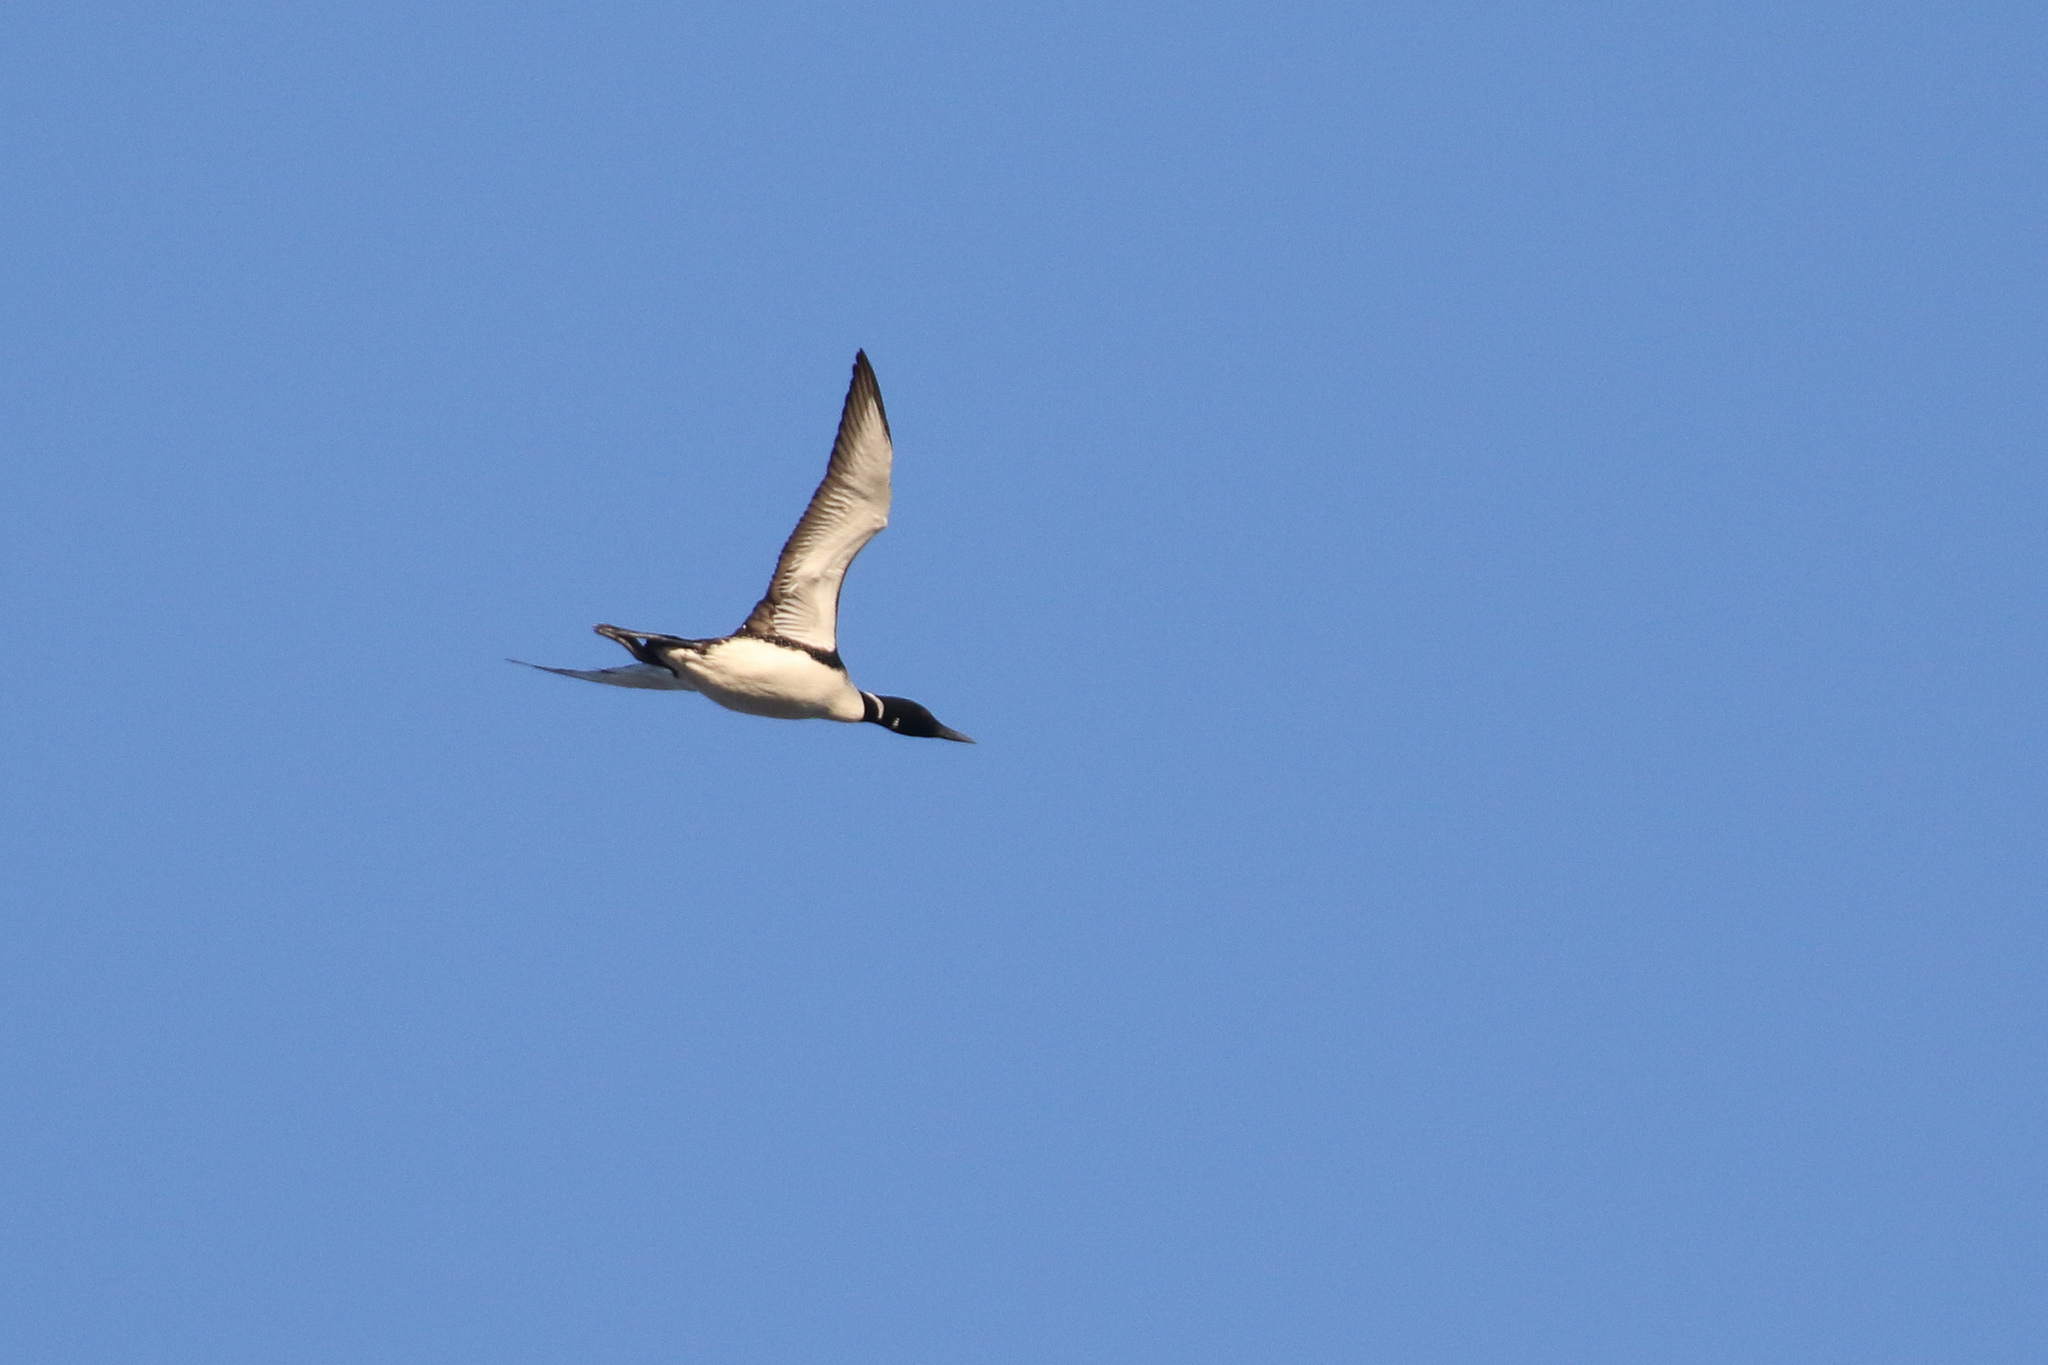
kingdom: Animalia
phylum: Chordata
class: Aves
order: Gaviiformes
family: Gaviidae
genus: Gavia
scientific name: Gavia immer
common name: Common loon
